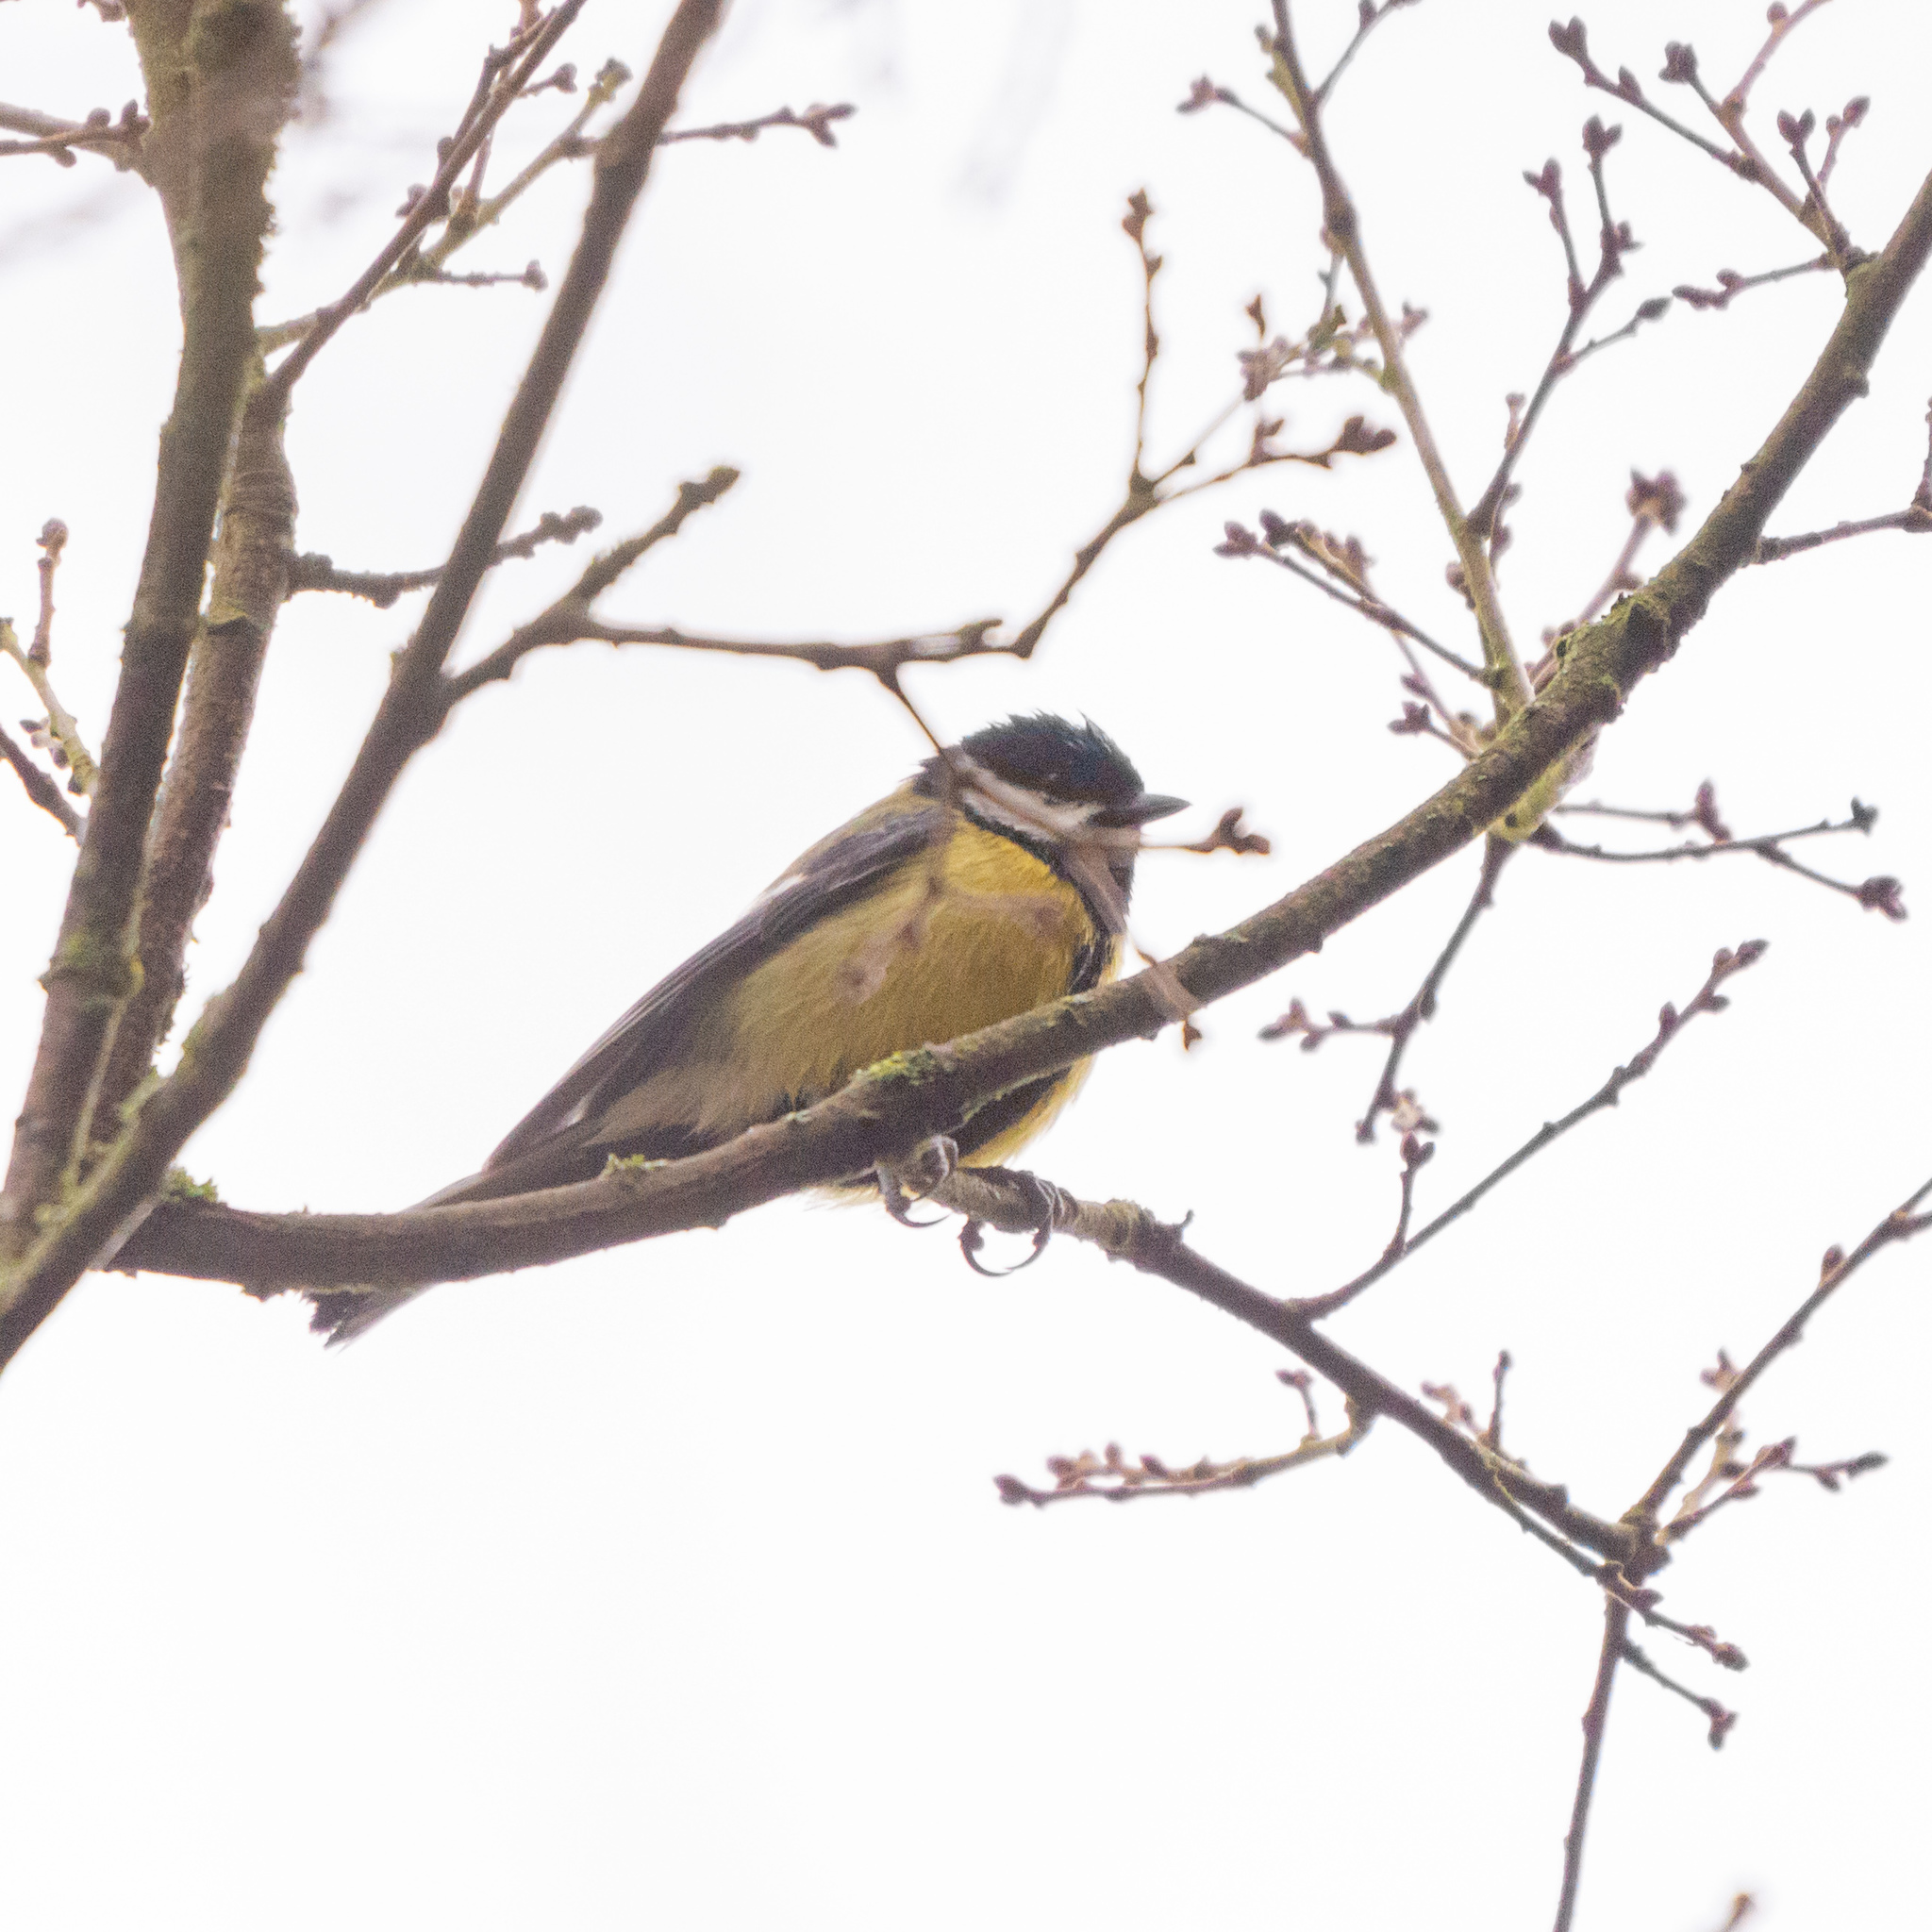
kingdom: Animalia
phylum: Chordata
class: Aves
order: Passeriformes
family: Paridae
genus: Parus
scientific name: Parus major
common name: Great tit
